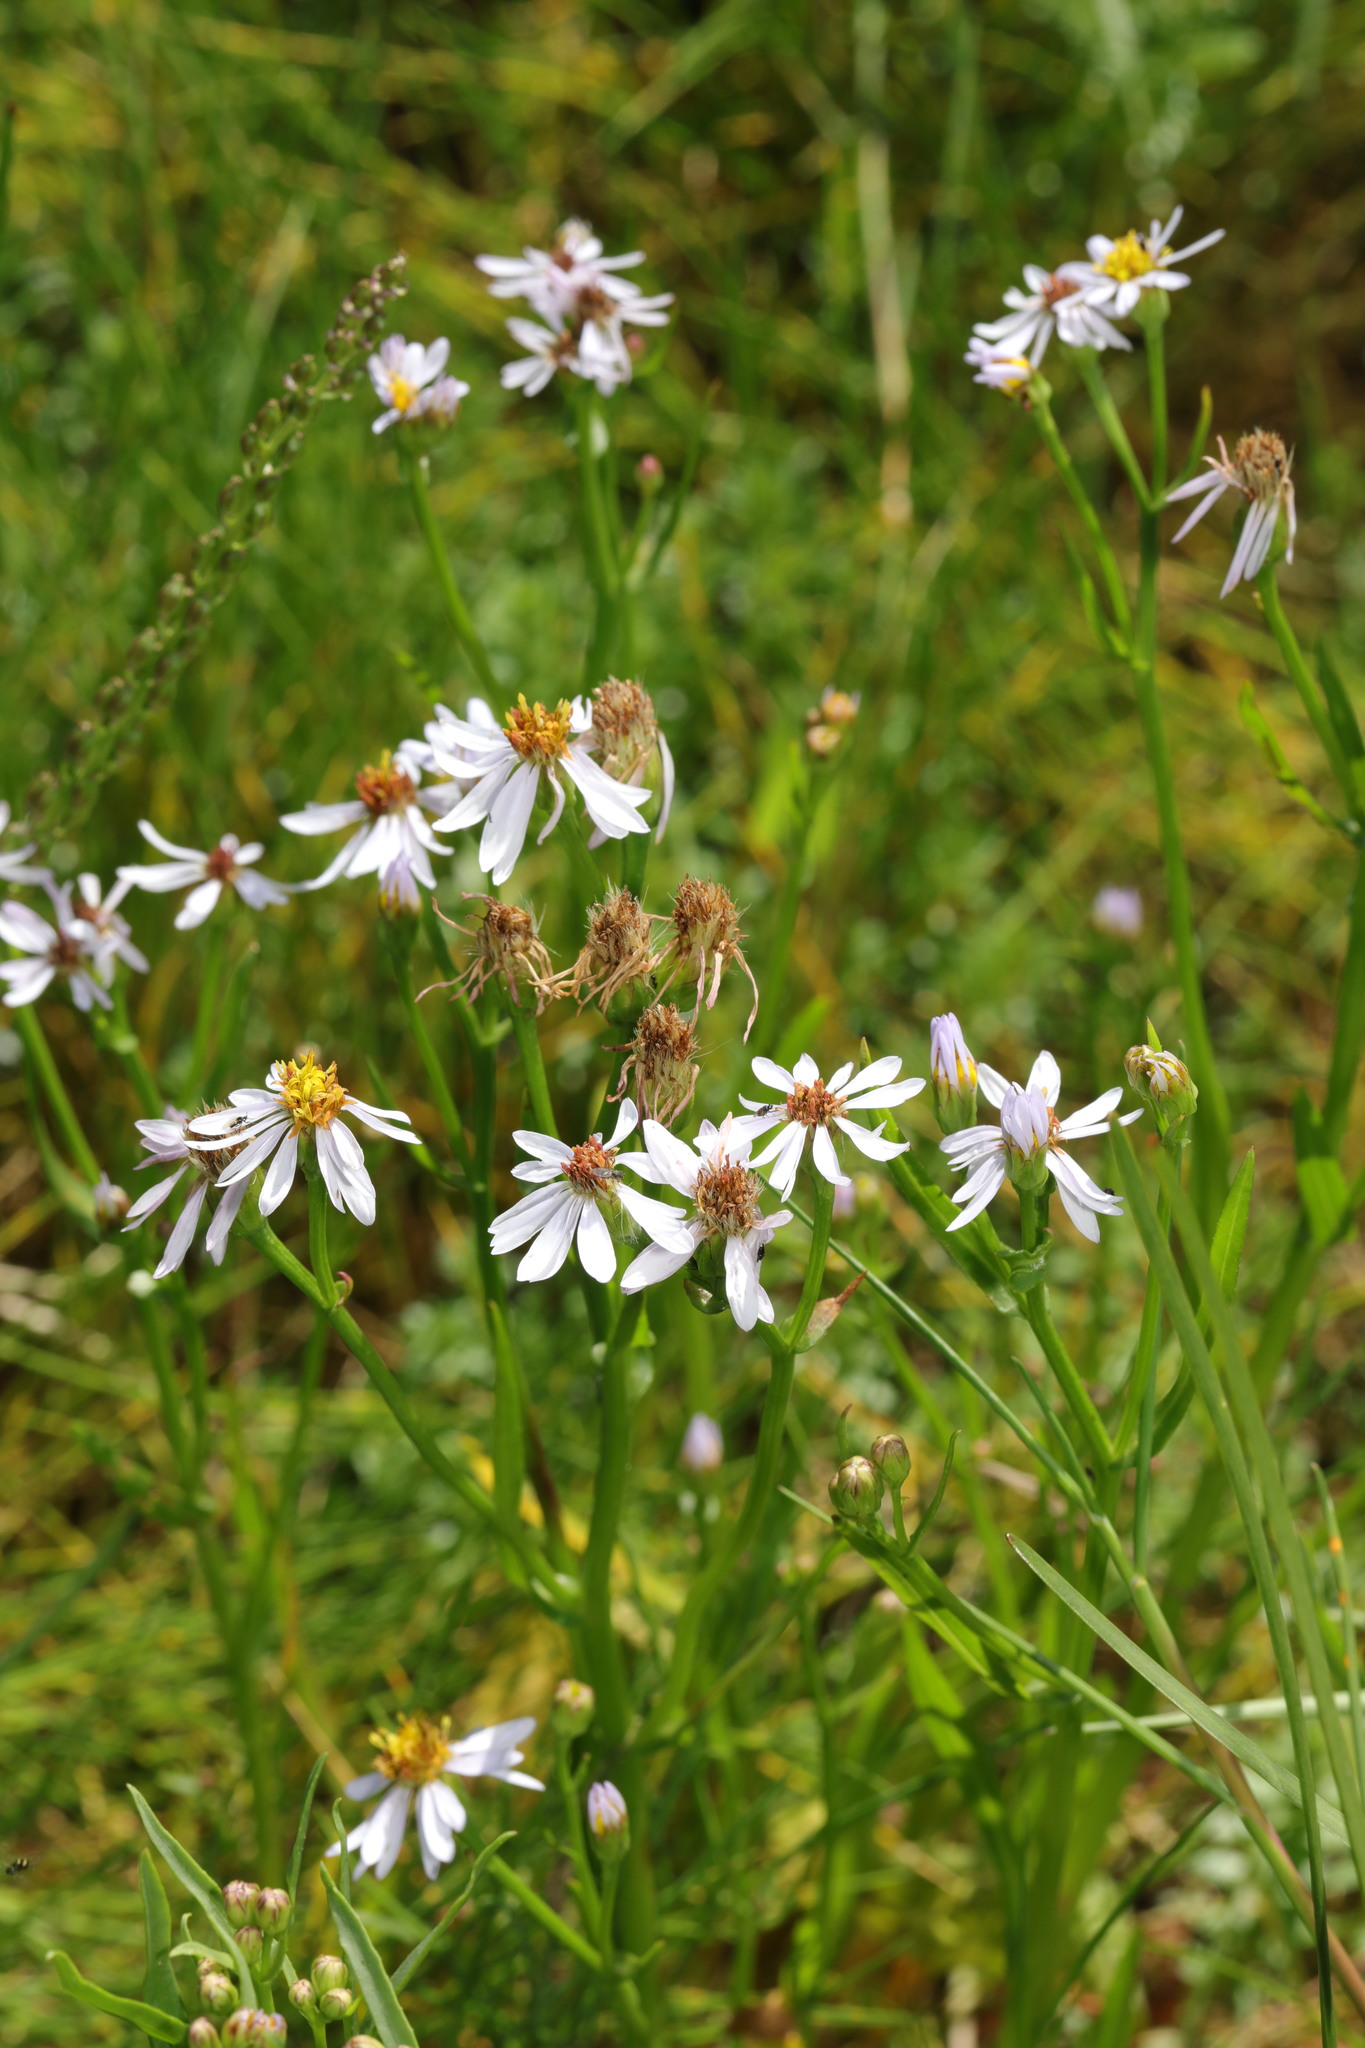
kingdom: Plantae
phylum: Tracheophyta
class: Magnoliopsida
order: Asterales
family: Asteraceae
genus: Tripolium
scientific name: Tripolium pannonicum
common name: Sea aster
